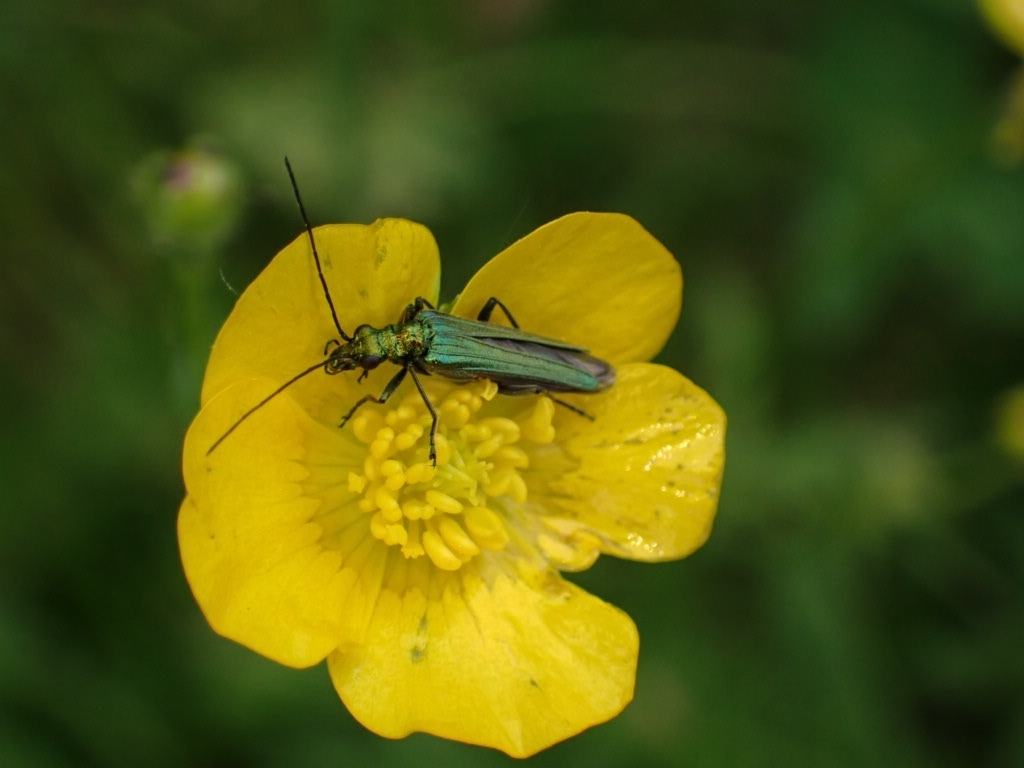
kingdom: Animalia
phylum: Arthropoda
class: Insecta
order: Coleoptera
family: Oedemeridae
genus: Oedemera
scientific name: Oedemera nobilis
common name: Swollen-thighed beetle
